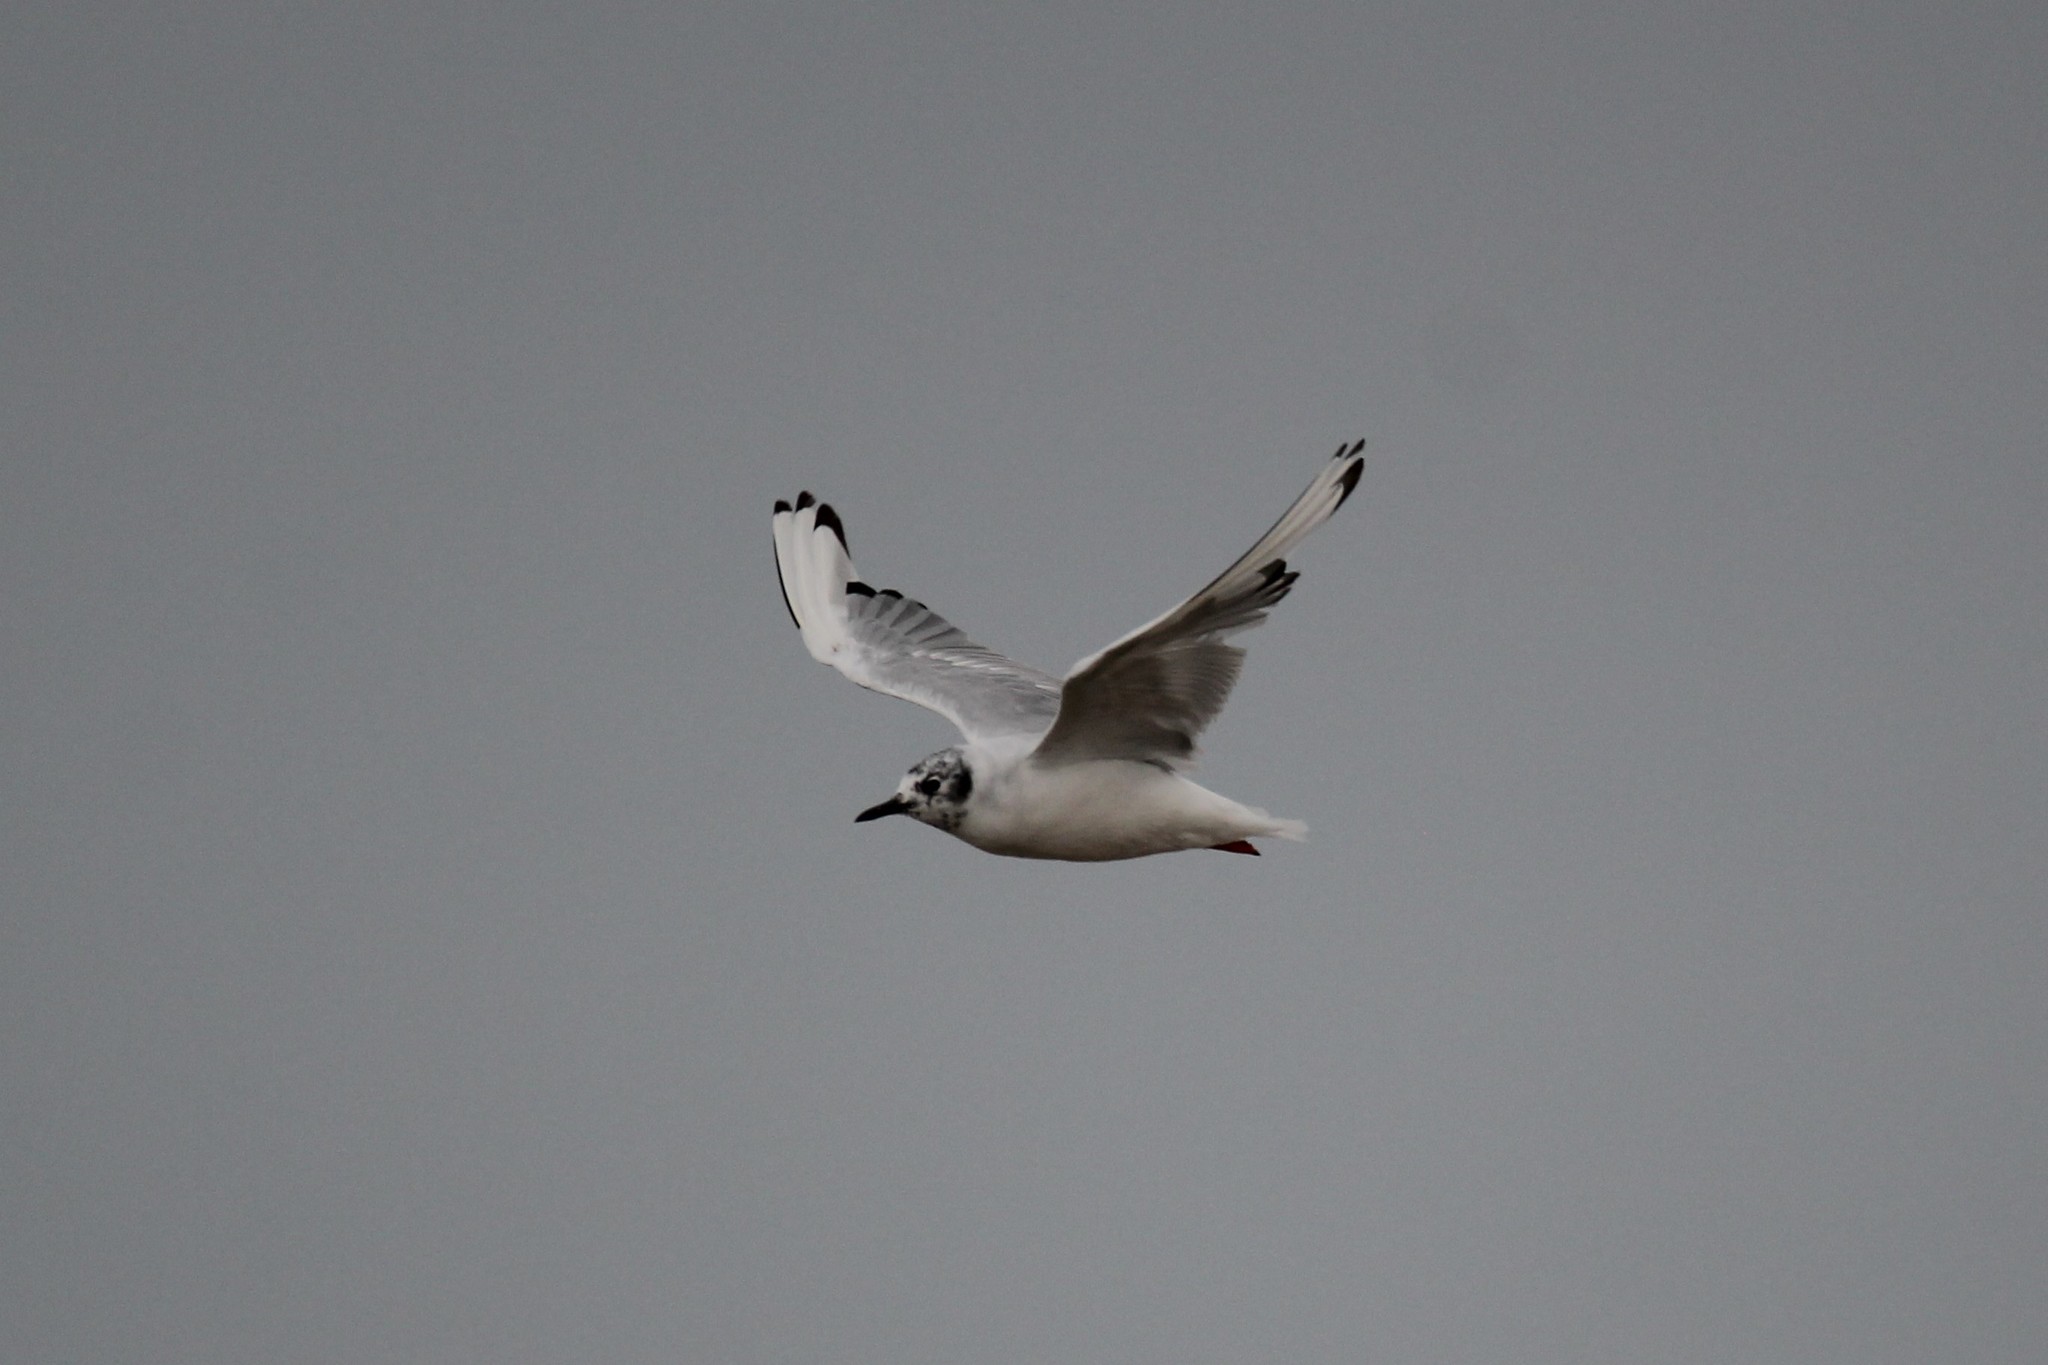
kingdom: Animalia
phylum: Chordata
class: Aves
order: Charadriiformes
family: Laridae
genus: Chroicocephalus
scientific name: Chroicocephalus philadelphia
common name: Bonaparte's gull
